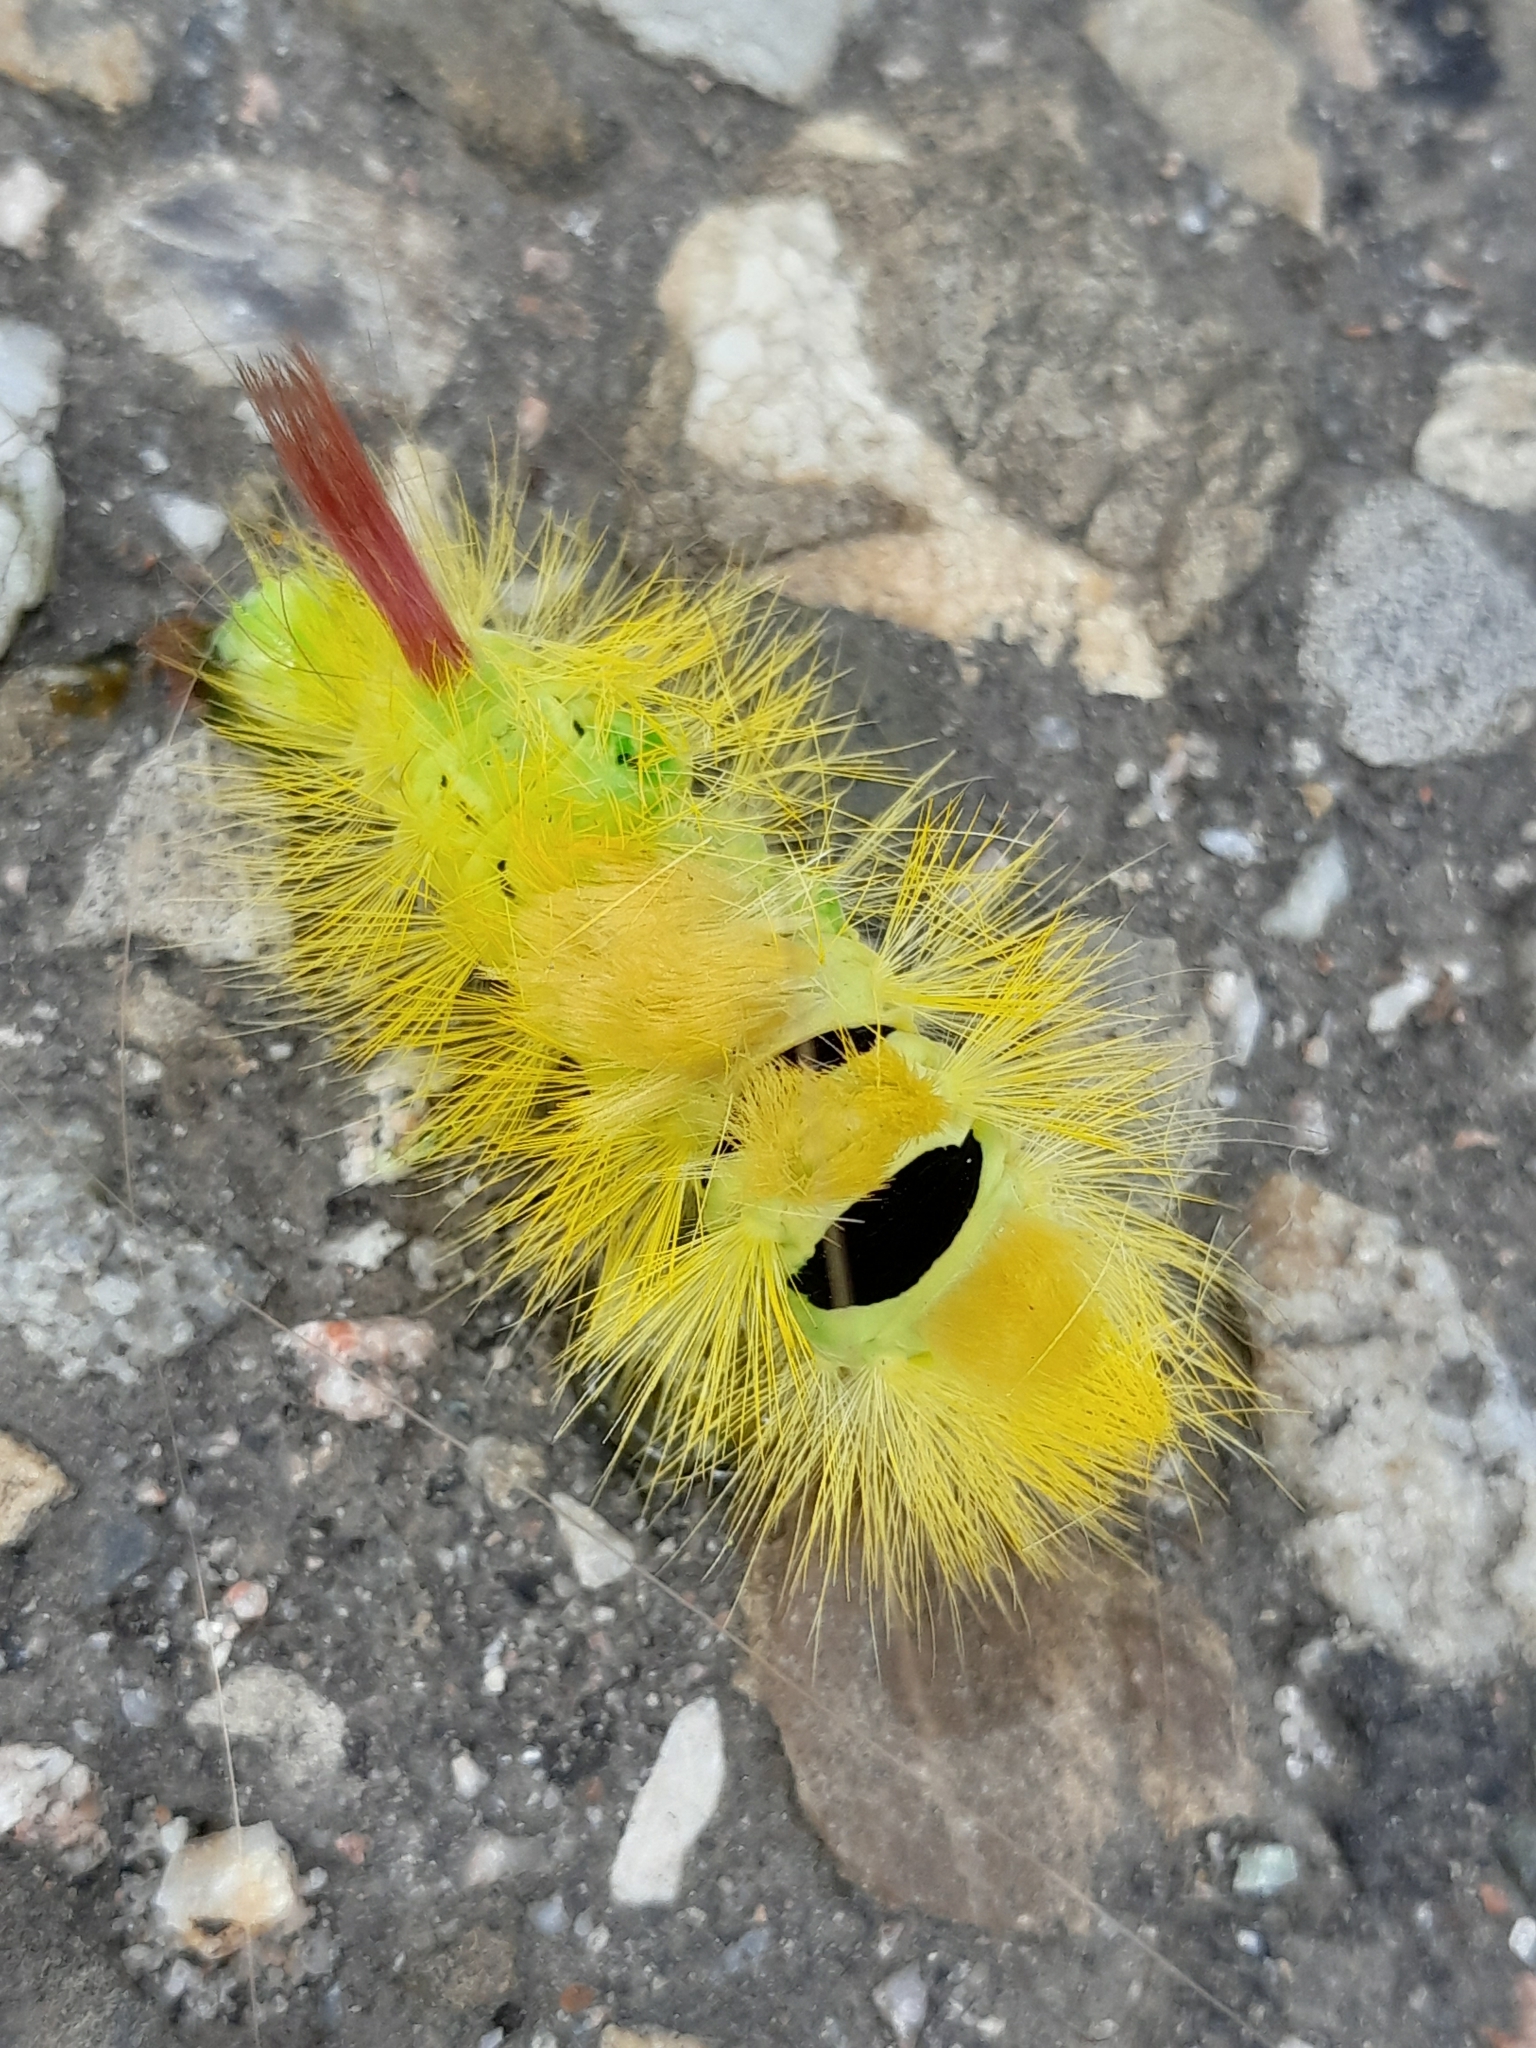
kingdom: Animalia
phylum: Arthropoda
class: Insecta
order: Lepidoptera
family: Erebidae
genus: Calliteara
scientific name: Calliteara pudibunda
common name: Pale tussock
